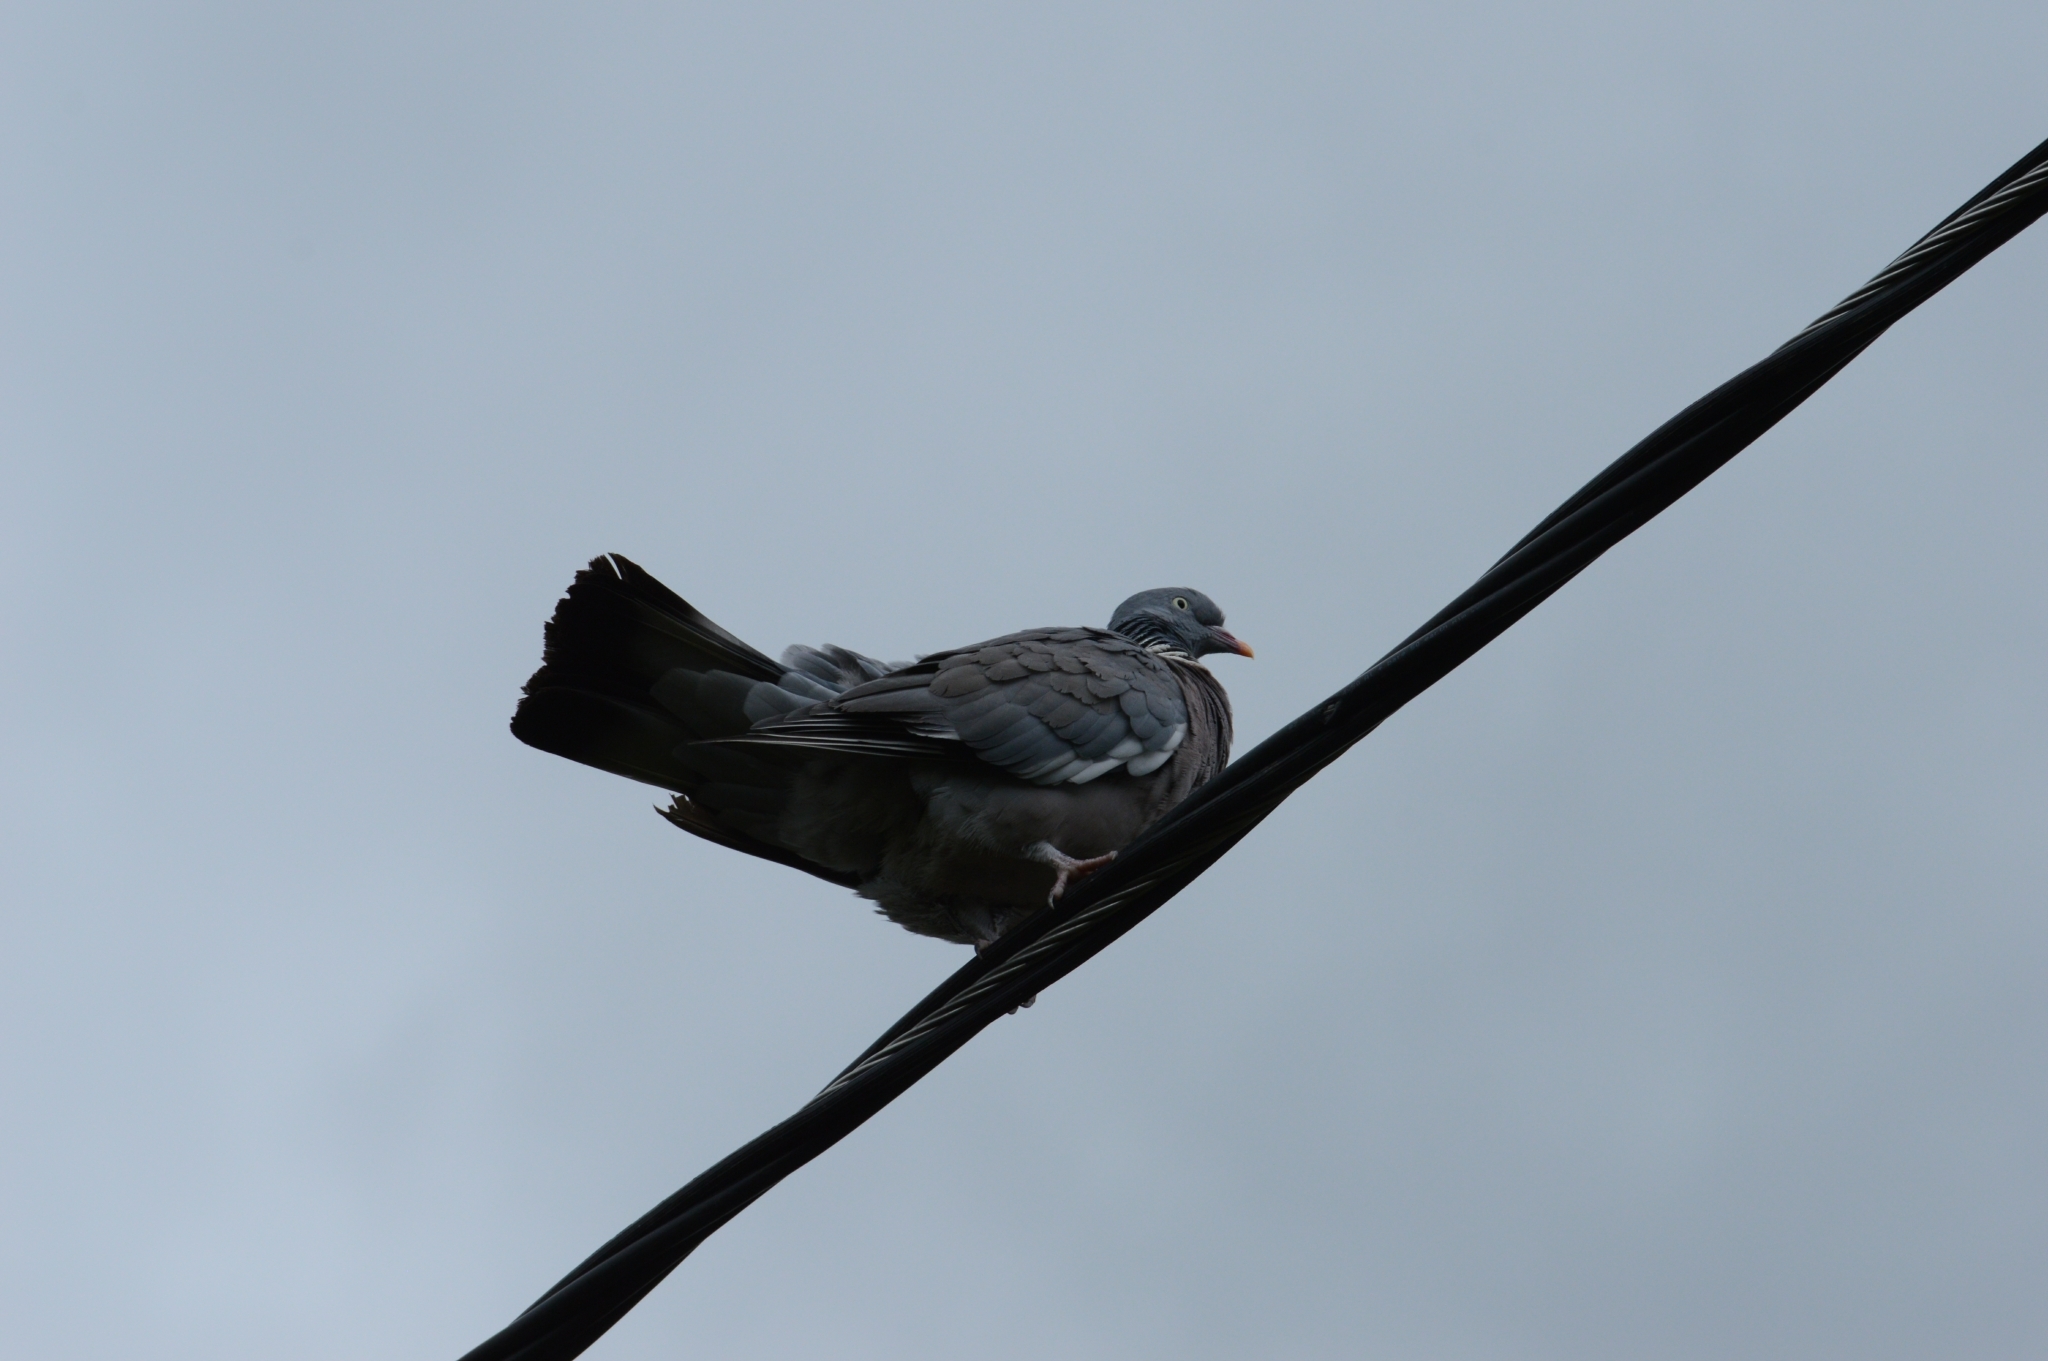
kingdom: Animalia
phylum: Chordata
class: Aves
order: Columbiformes
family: Columbidae
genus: Columba
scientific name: Columba palumbus
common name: Common wood pigeon
